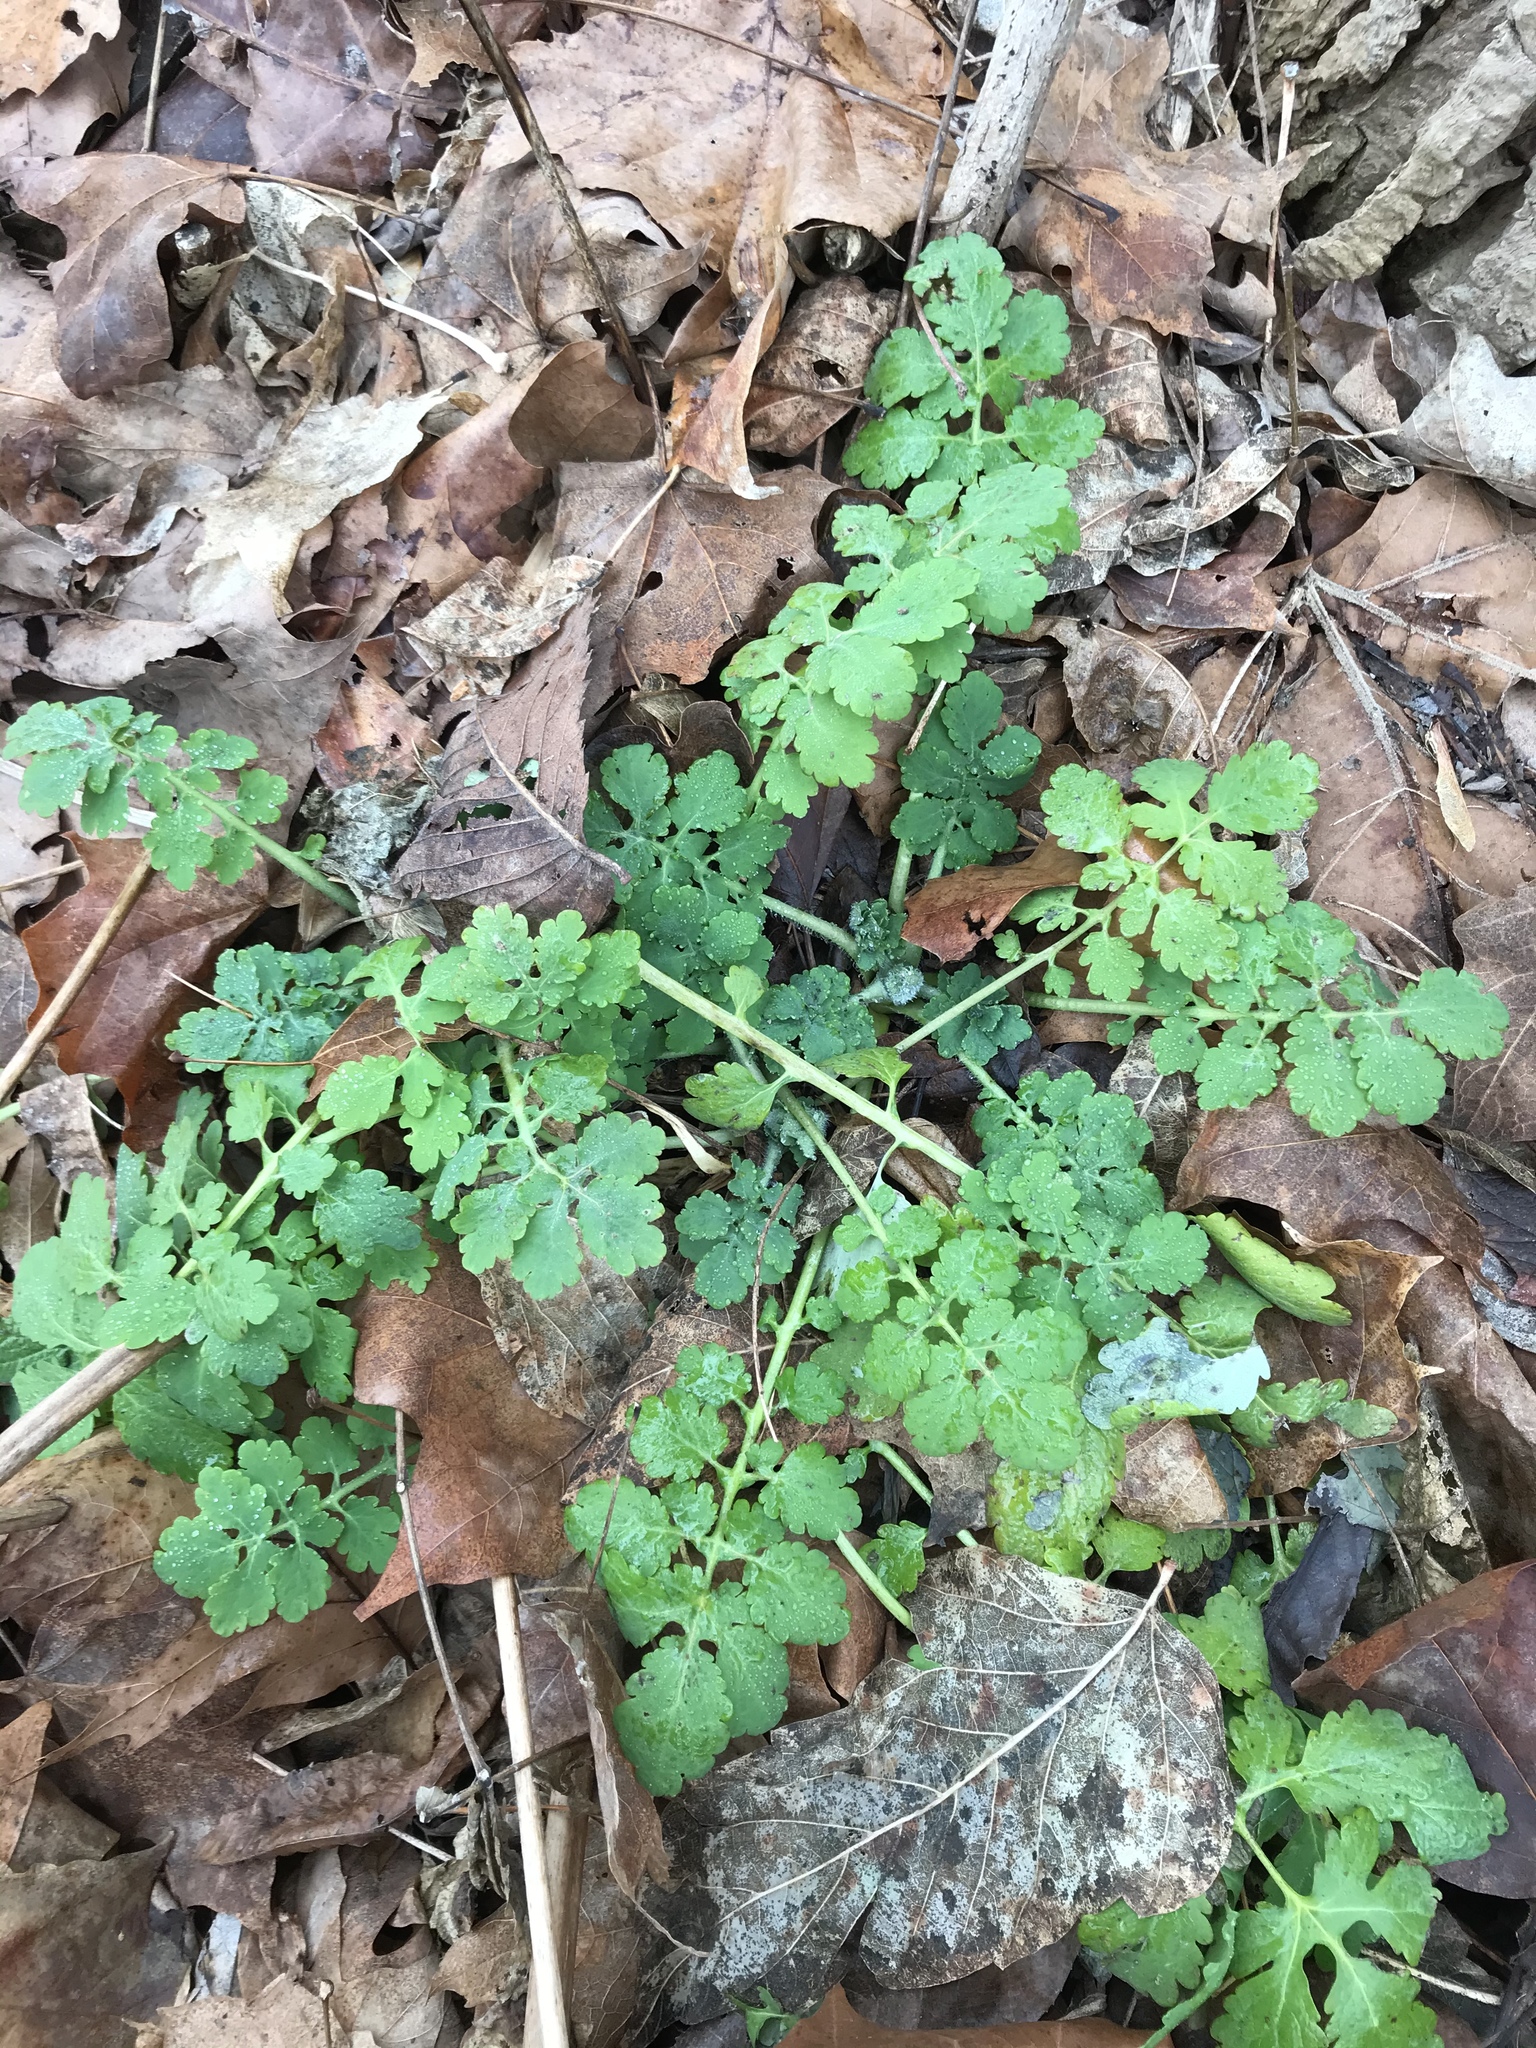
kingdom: Plantae
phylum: Tracheophyta
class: Magnoliopsida
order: Ranunculales
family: Papaveraceae
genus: Chelidonium
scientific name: Chelidonium majus
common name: Greater celandine
